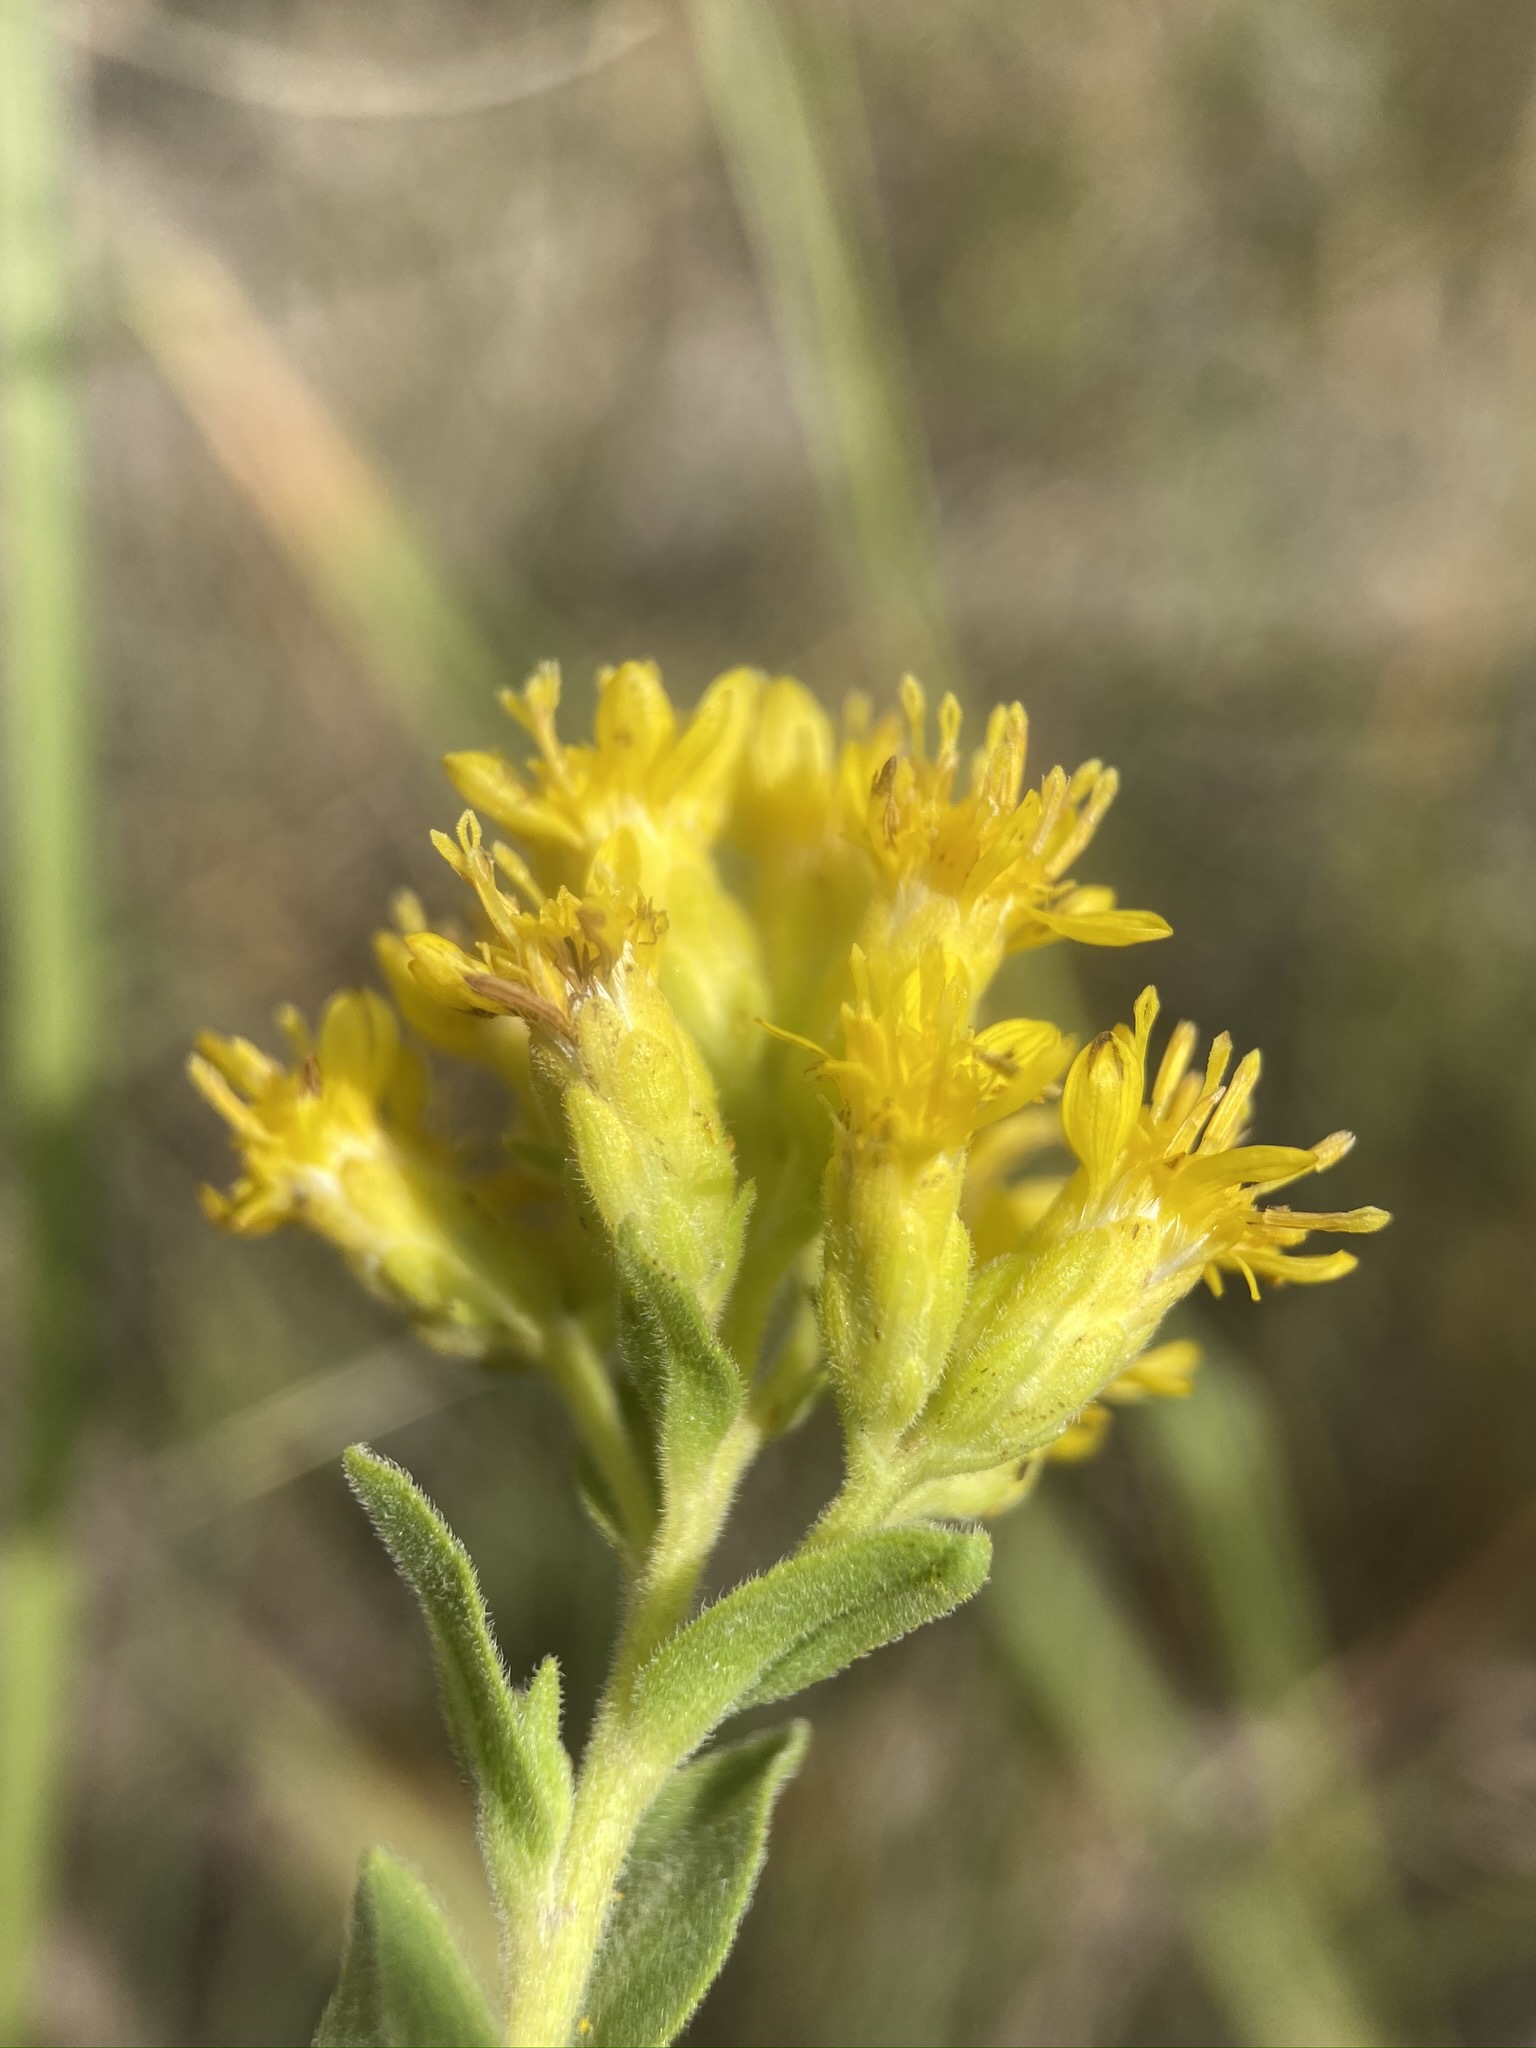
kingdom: Plantae
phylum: Tracheophyta
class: Magnoliopsida
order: Asterales
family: Asteraceae
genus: Solidago
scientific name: Solidago mollis
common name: Ashly goldenrod
